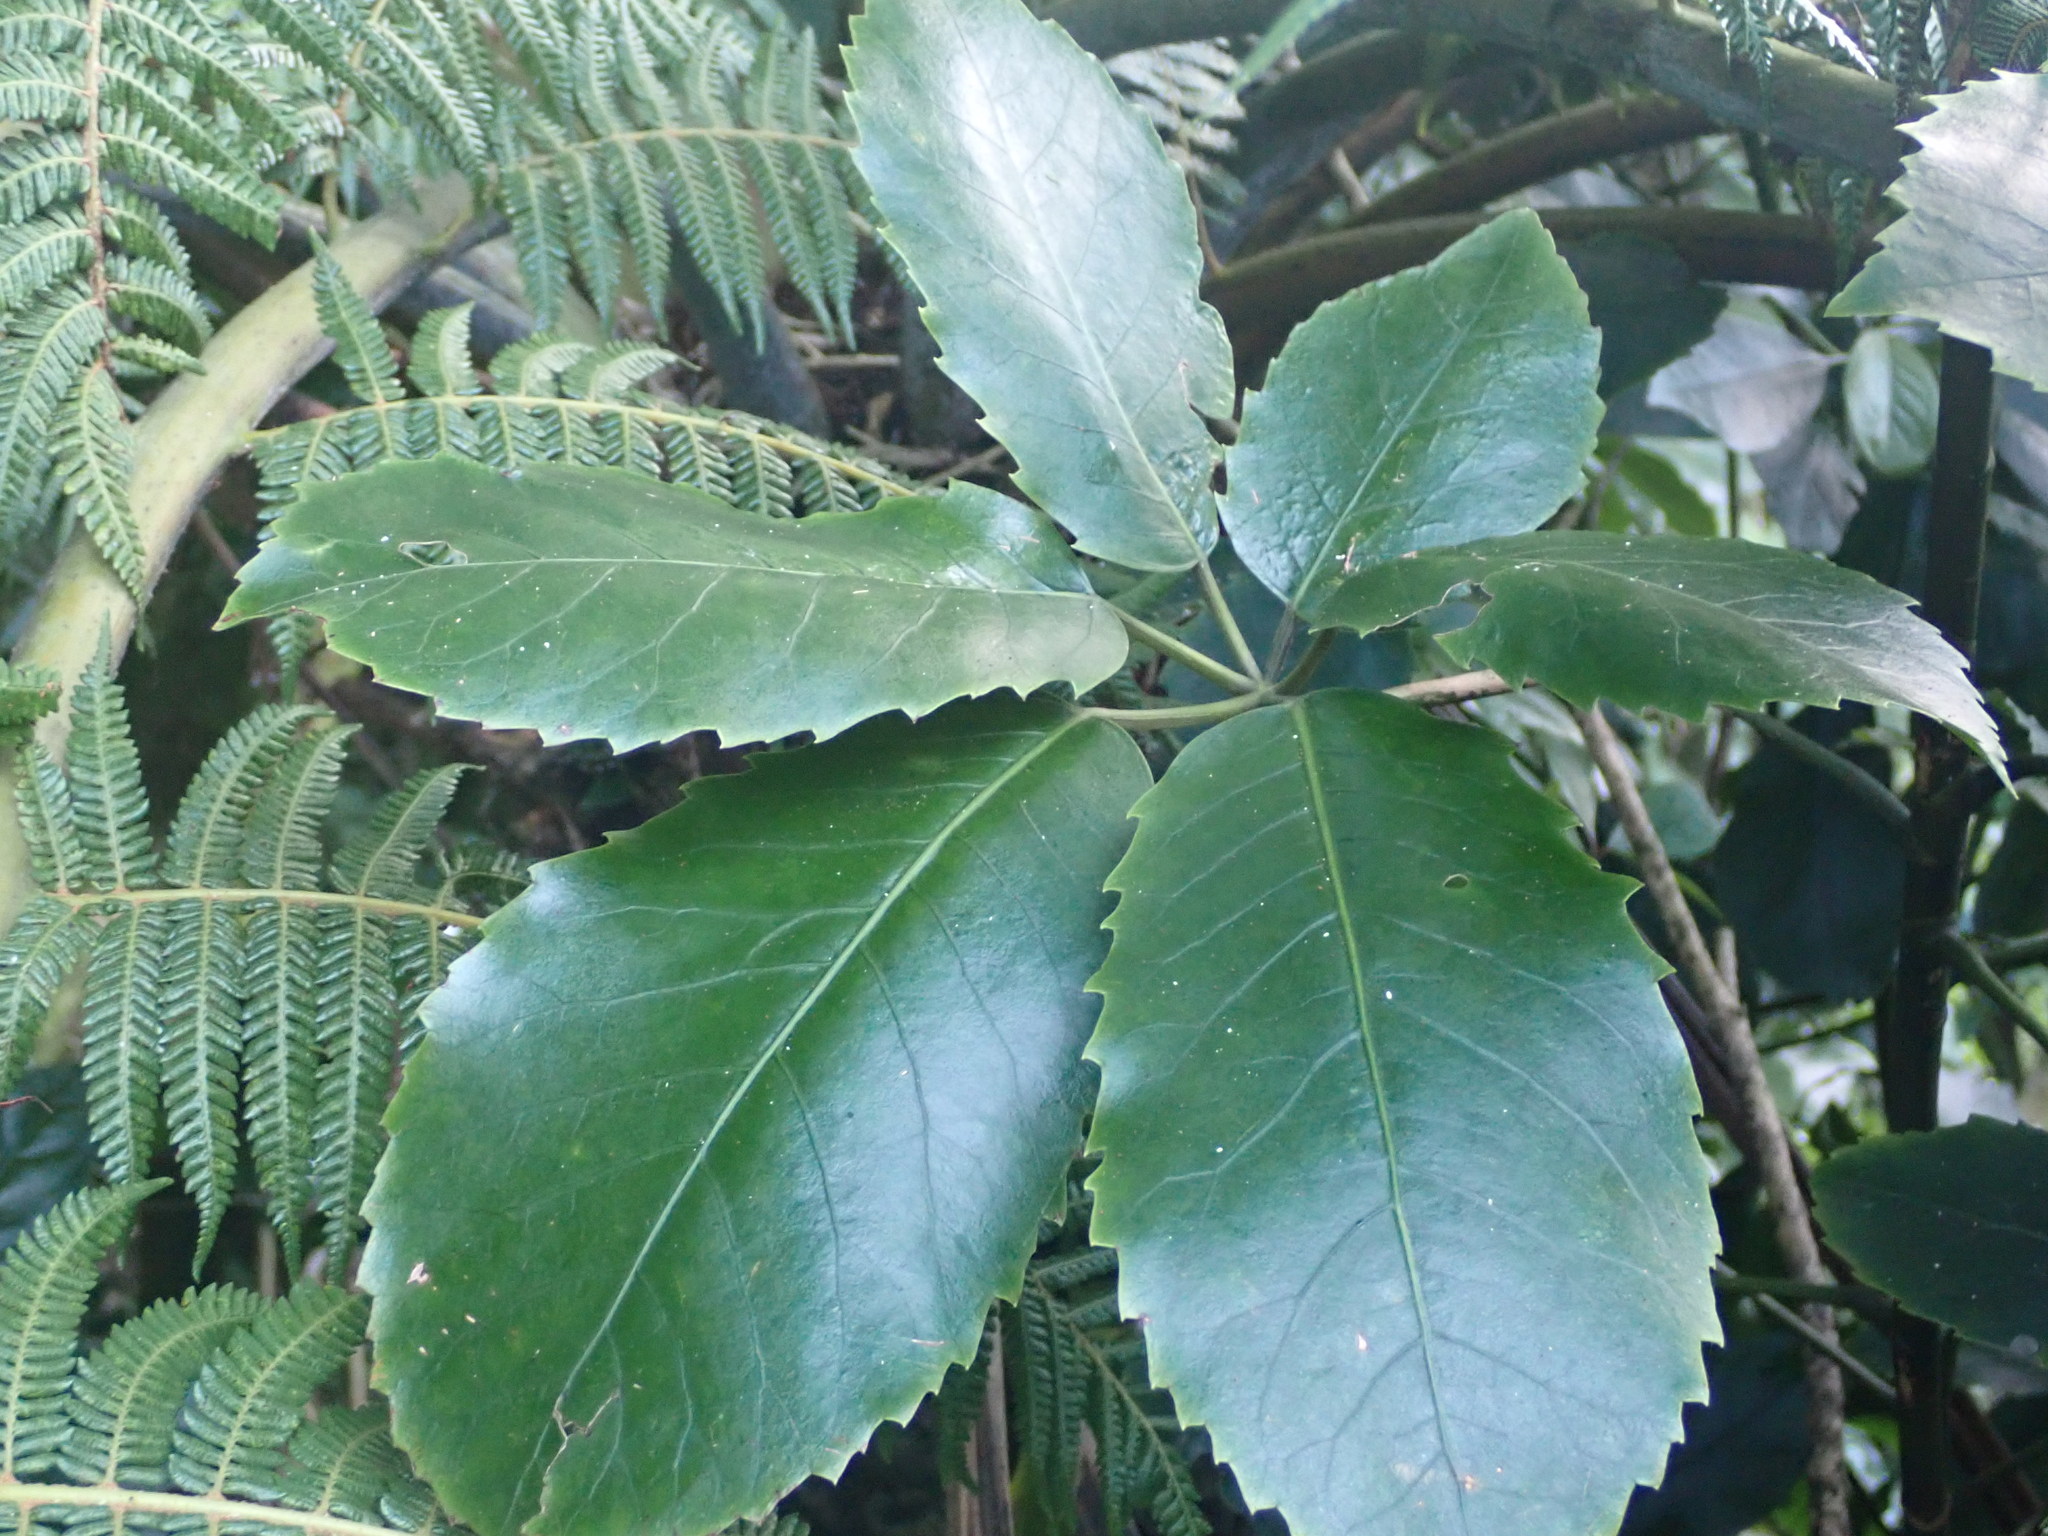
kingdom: Plantae
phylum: Tracheophyta
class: Magnoliopsida
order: Apiales
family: Araliaceae
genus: Neopanax
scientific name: Neopanax arboreus
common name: Five-fingers
